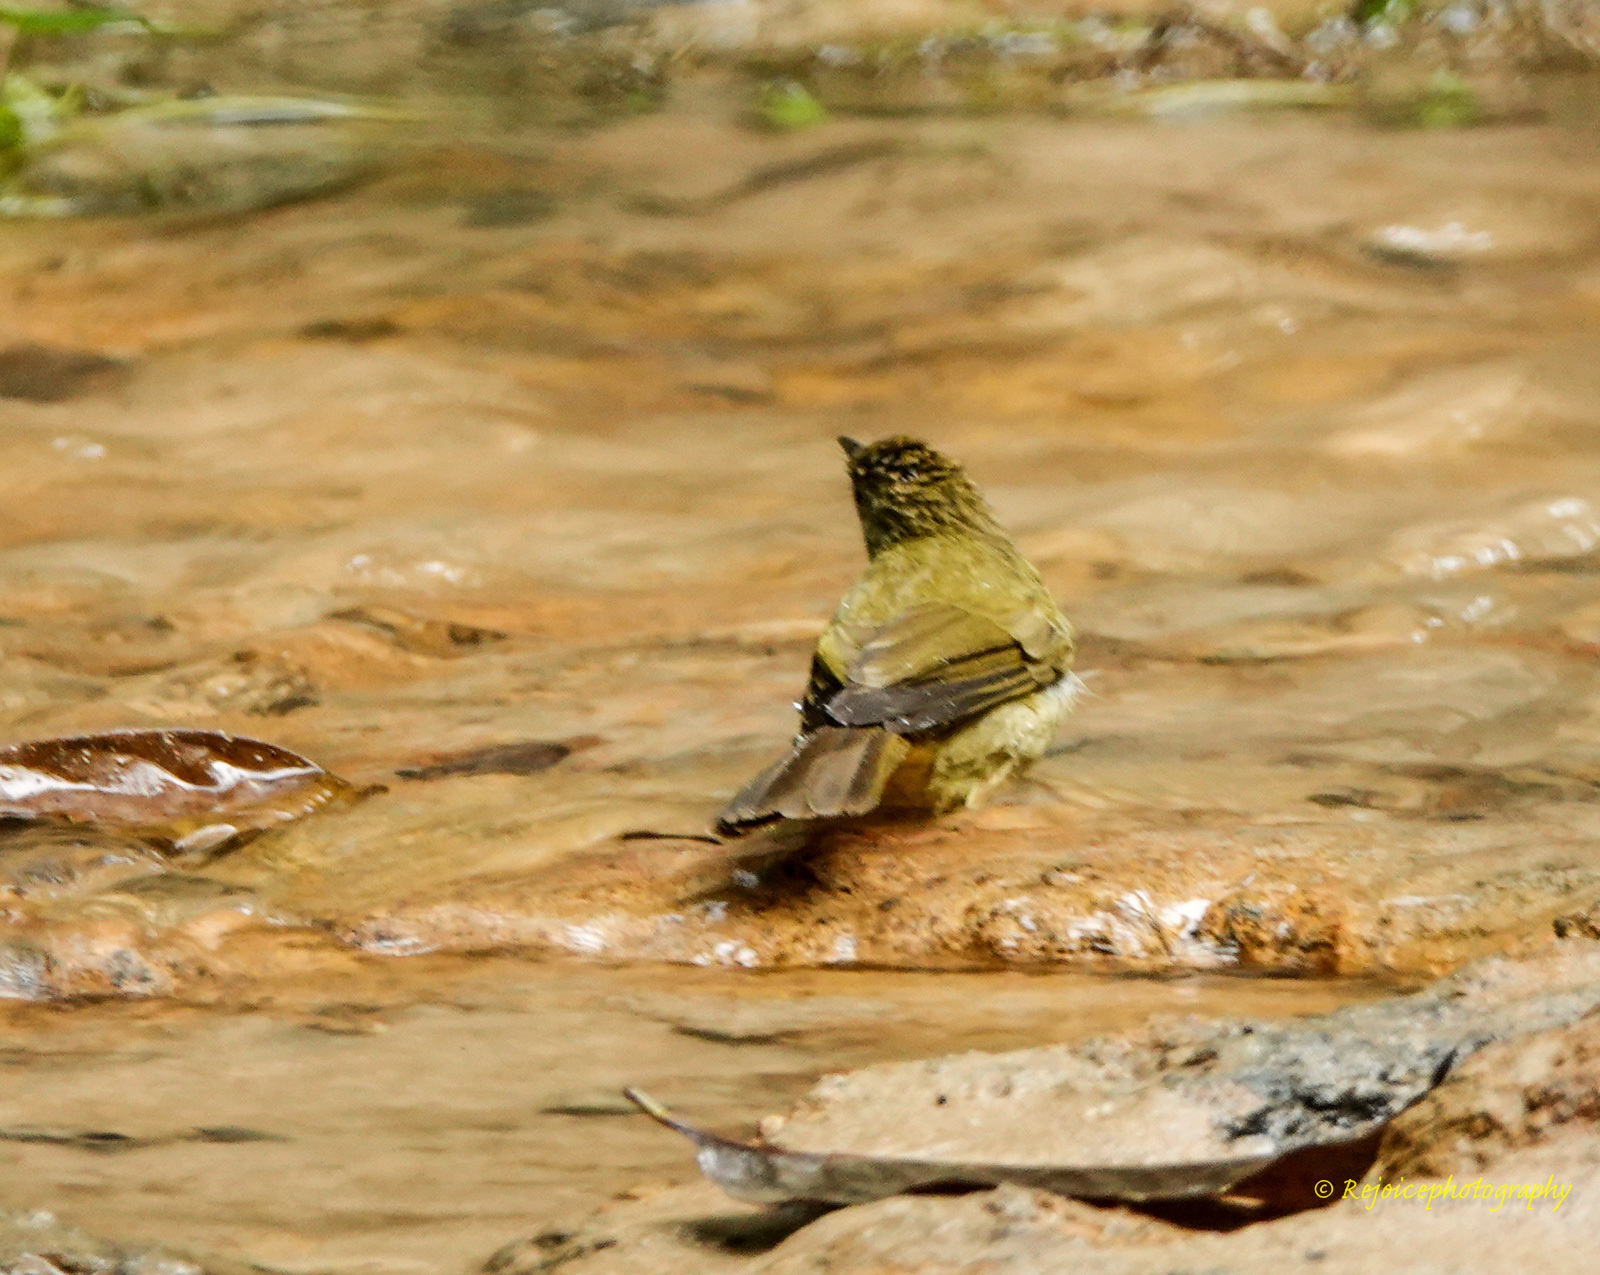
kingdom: Animalia
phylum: Chordata
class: Aves
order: Passeriformes
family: Pycnonotidae
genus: Iole
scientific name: Iole virescens
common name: Olive bulbul
